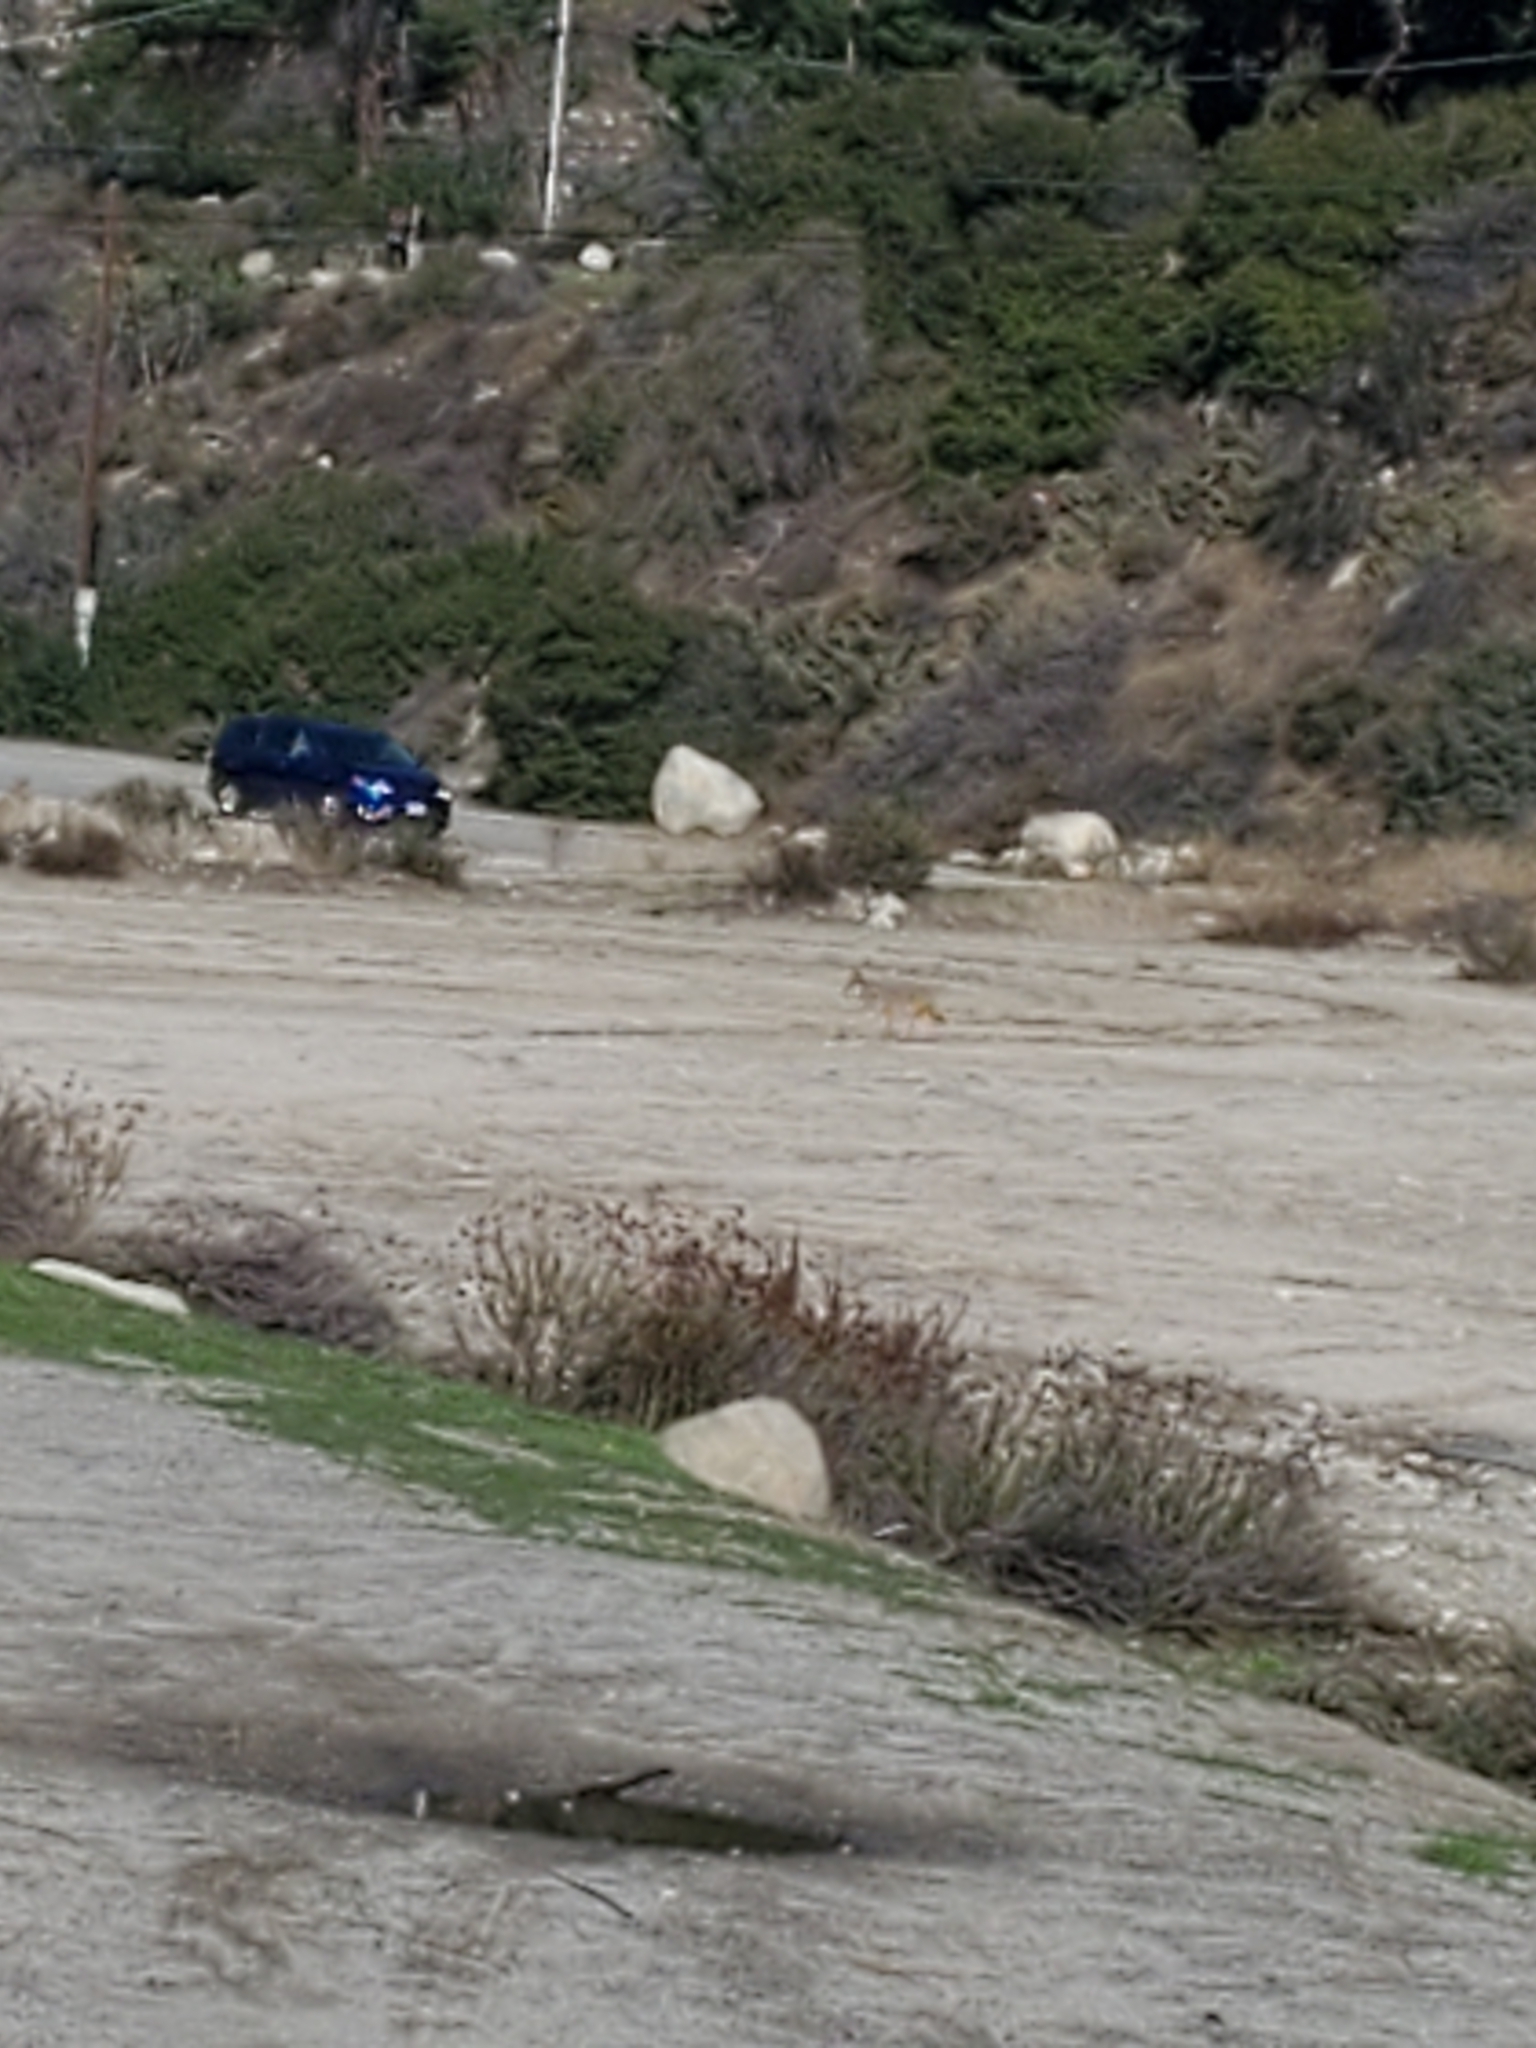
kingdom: Animalia
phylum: Chordata
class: Mammalia
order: Carnivora
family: Canidae
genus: Canis
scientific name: Canis latrans
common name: Coyote
